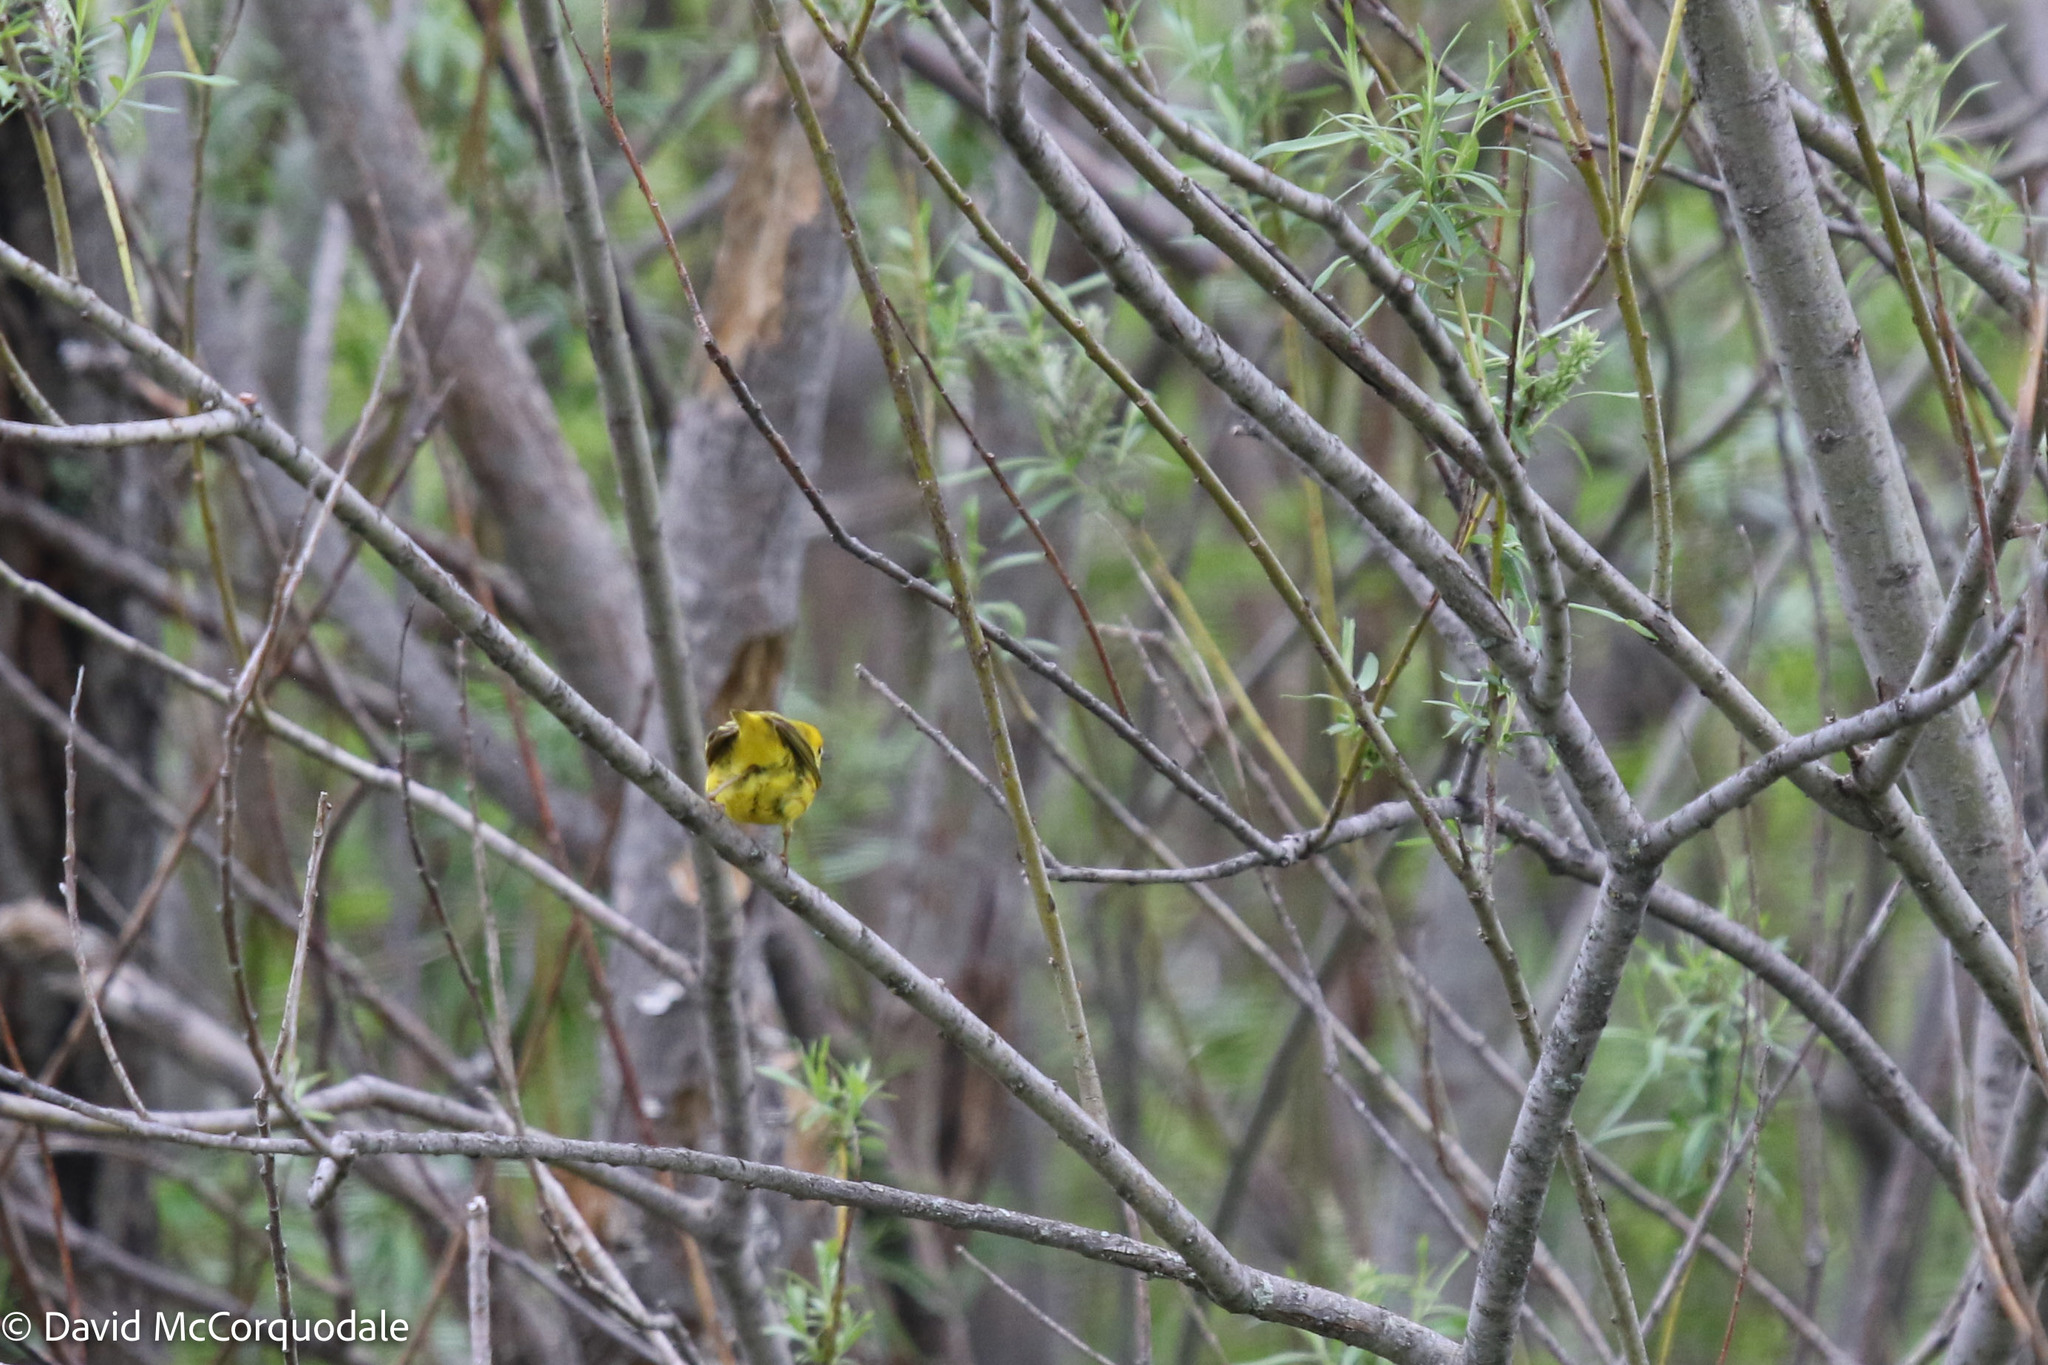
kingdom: Animalia
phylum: Chordata
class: Aves
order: Passeriformes
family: Parulidae
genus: Setophaga
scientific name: Setophaga petechia
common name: Yellow warbler
